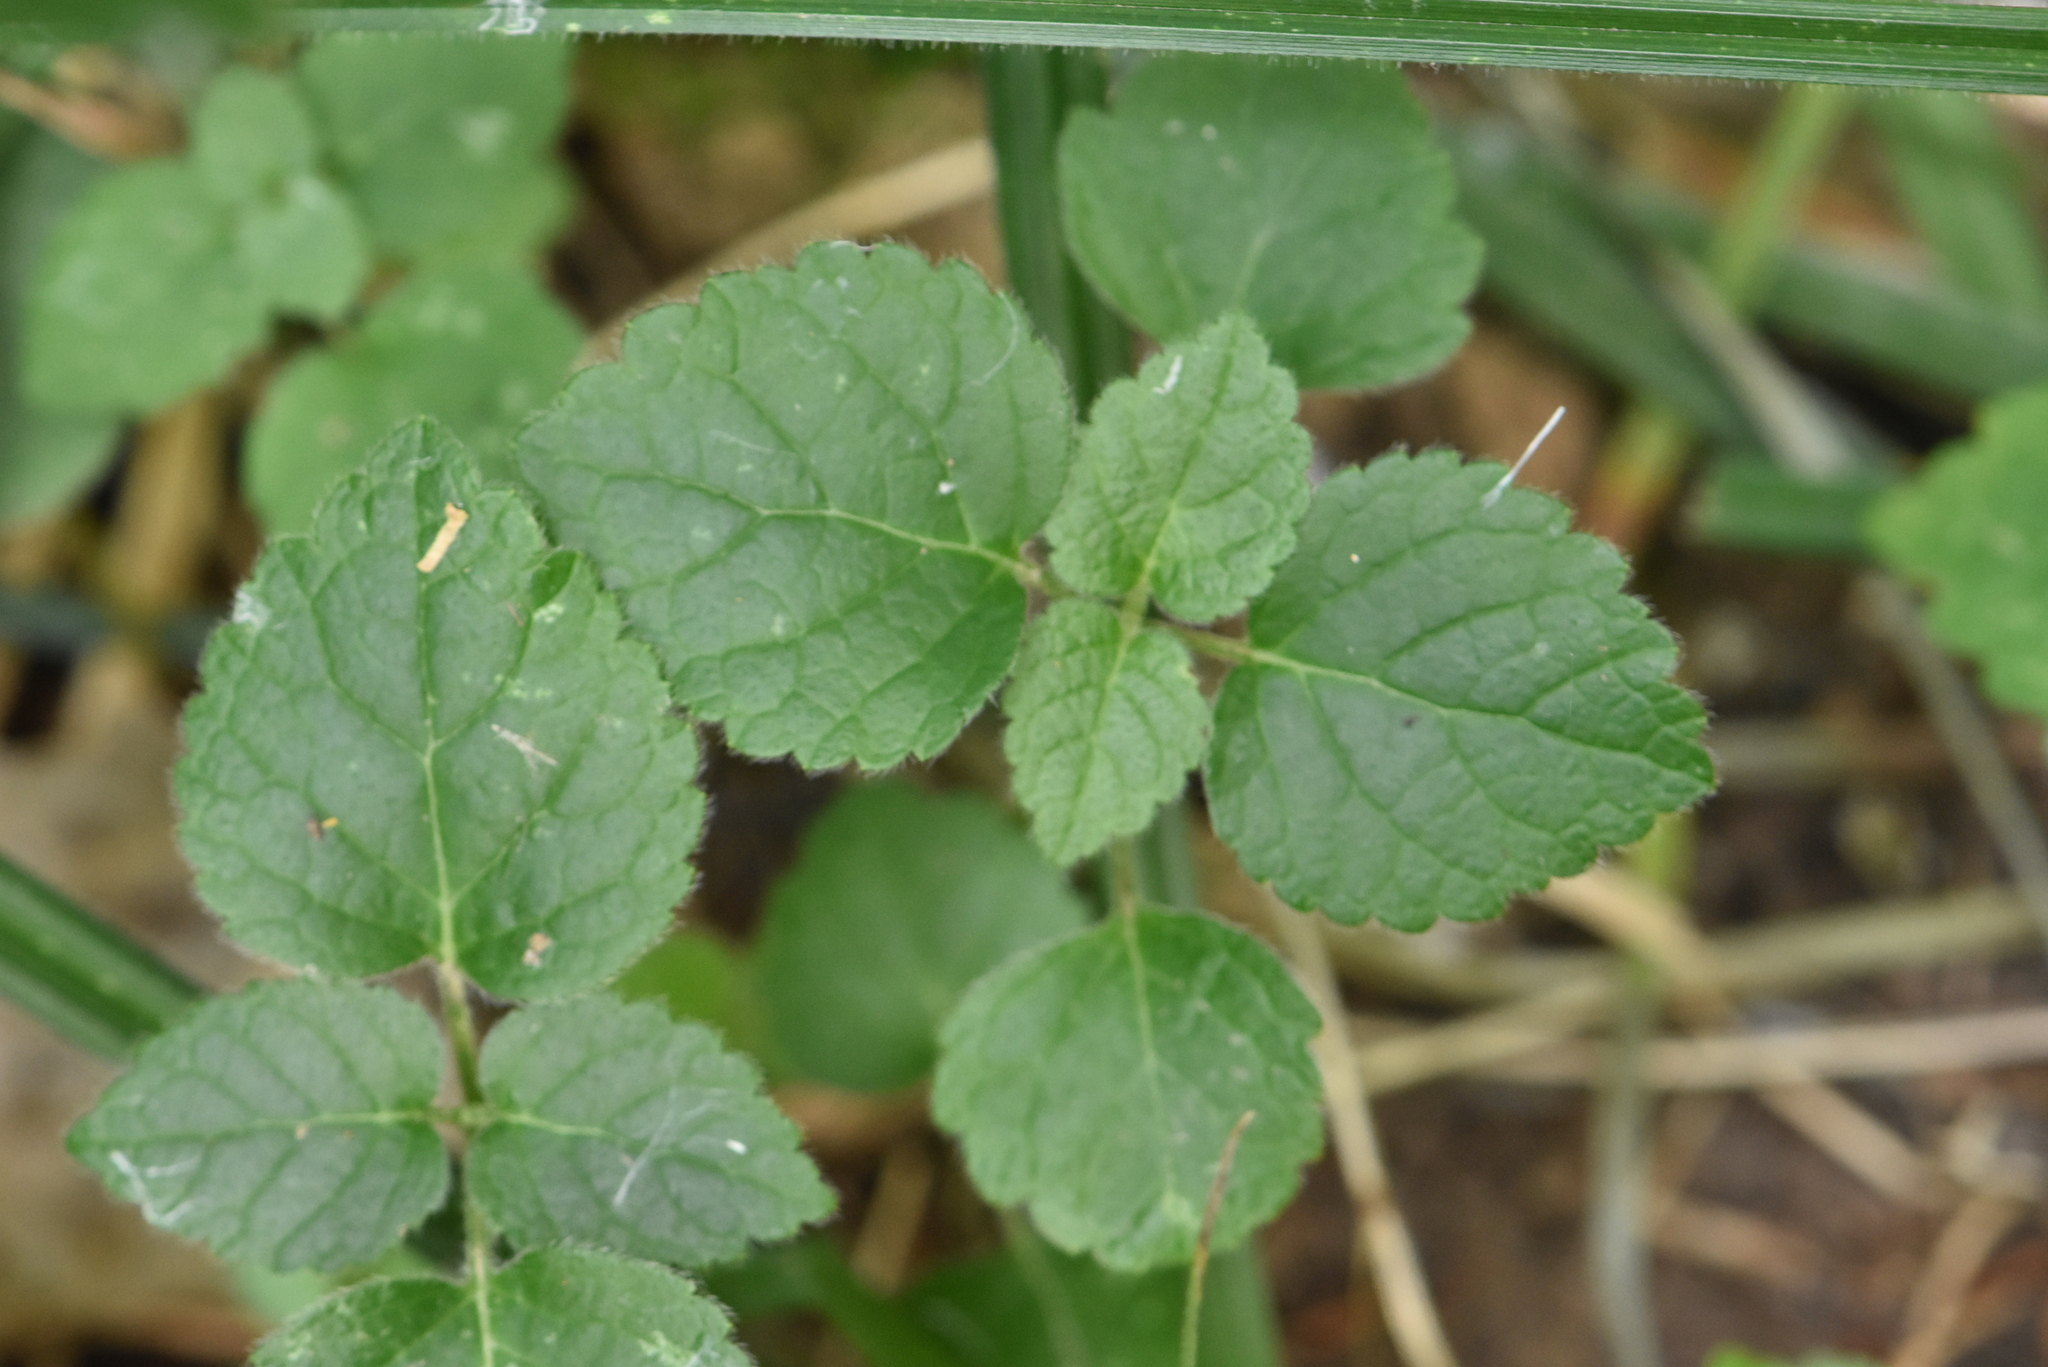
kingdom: Plantae
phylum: Tracheophyta
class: Magnoliopsida
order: Lamiales
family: Lamiaceae
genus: Lamium
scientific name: Lamium galeobdolon
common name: Yellow archangel
